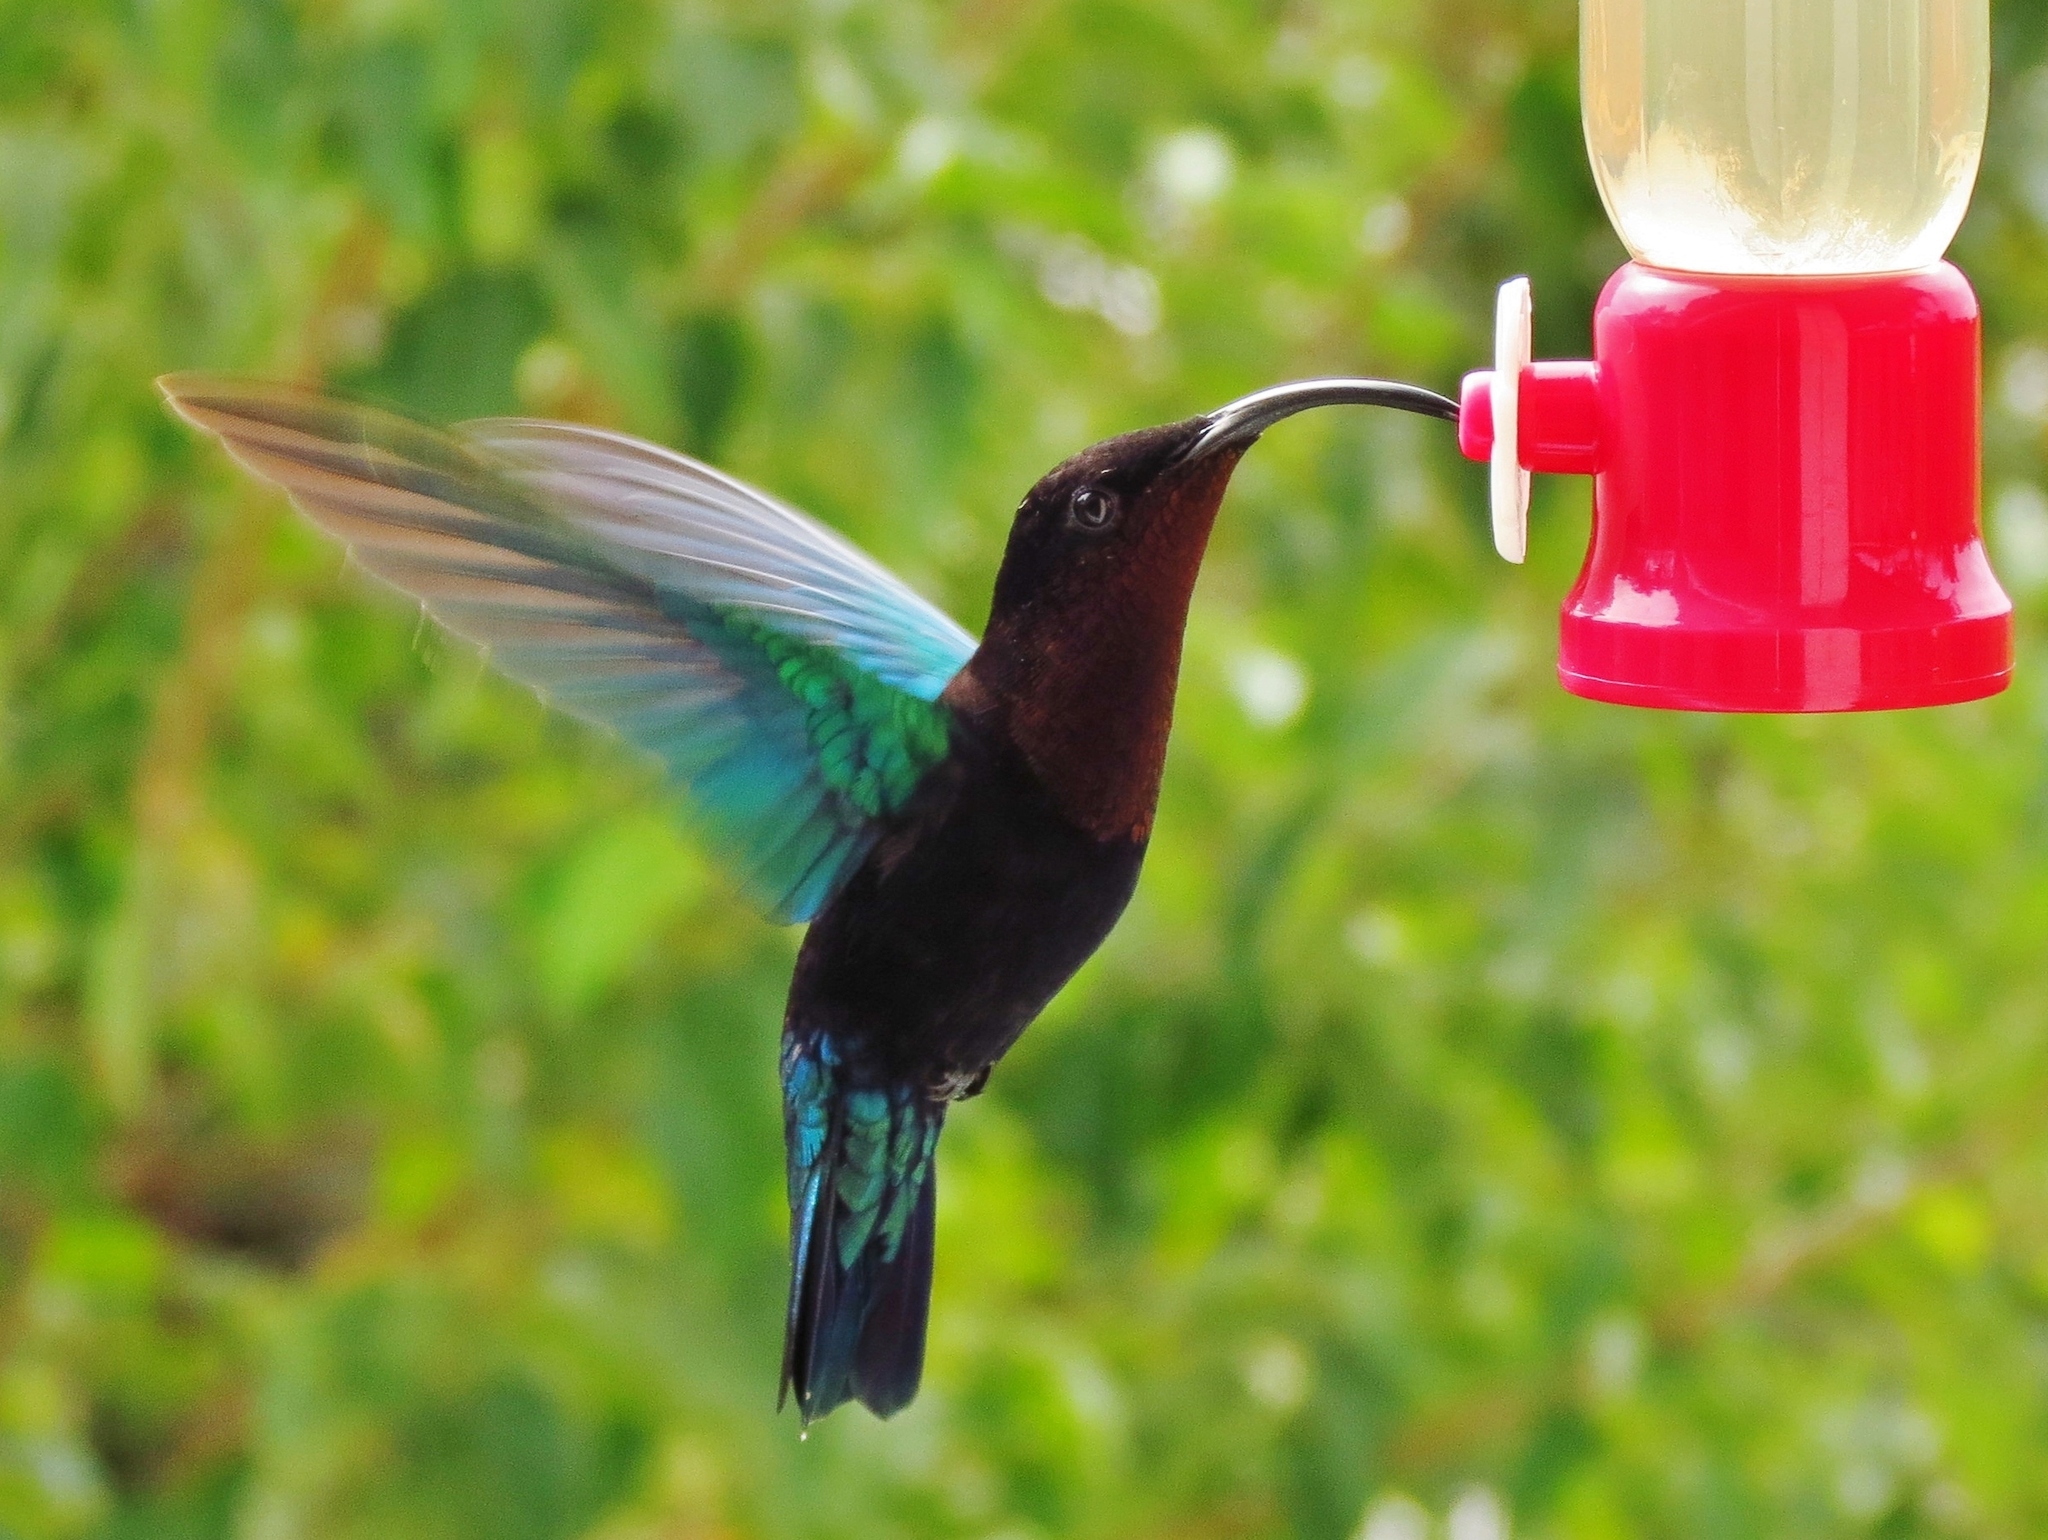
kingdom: Animalia
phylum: Chordata
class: Aves
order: Apodiformes
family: Trochilidae
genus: Eulampis
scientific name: Eulampis jugularis
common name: Purple-throated carib
